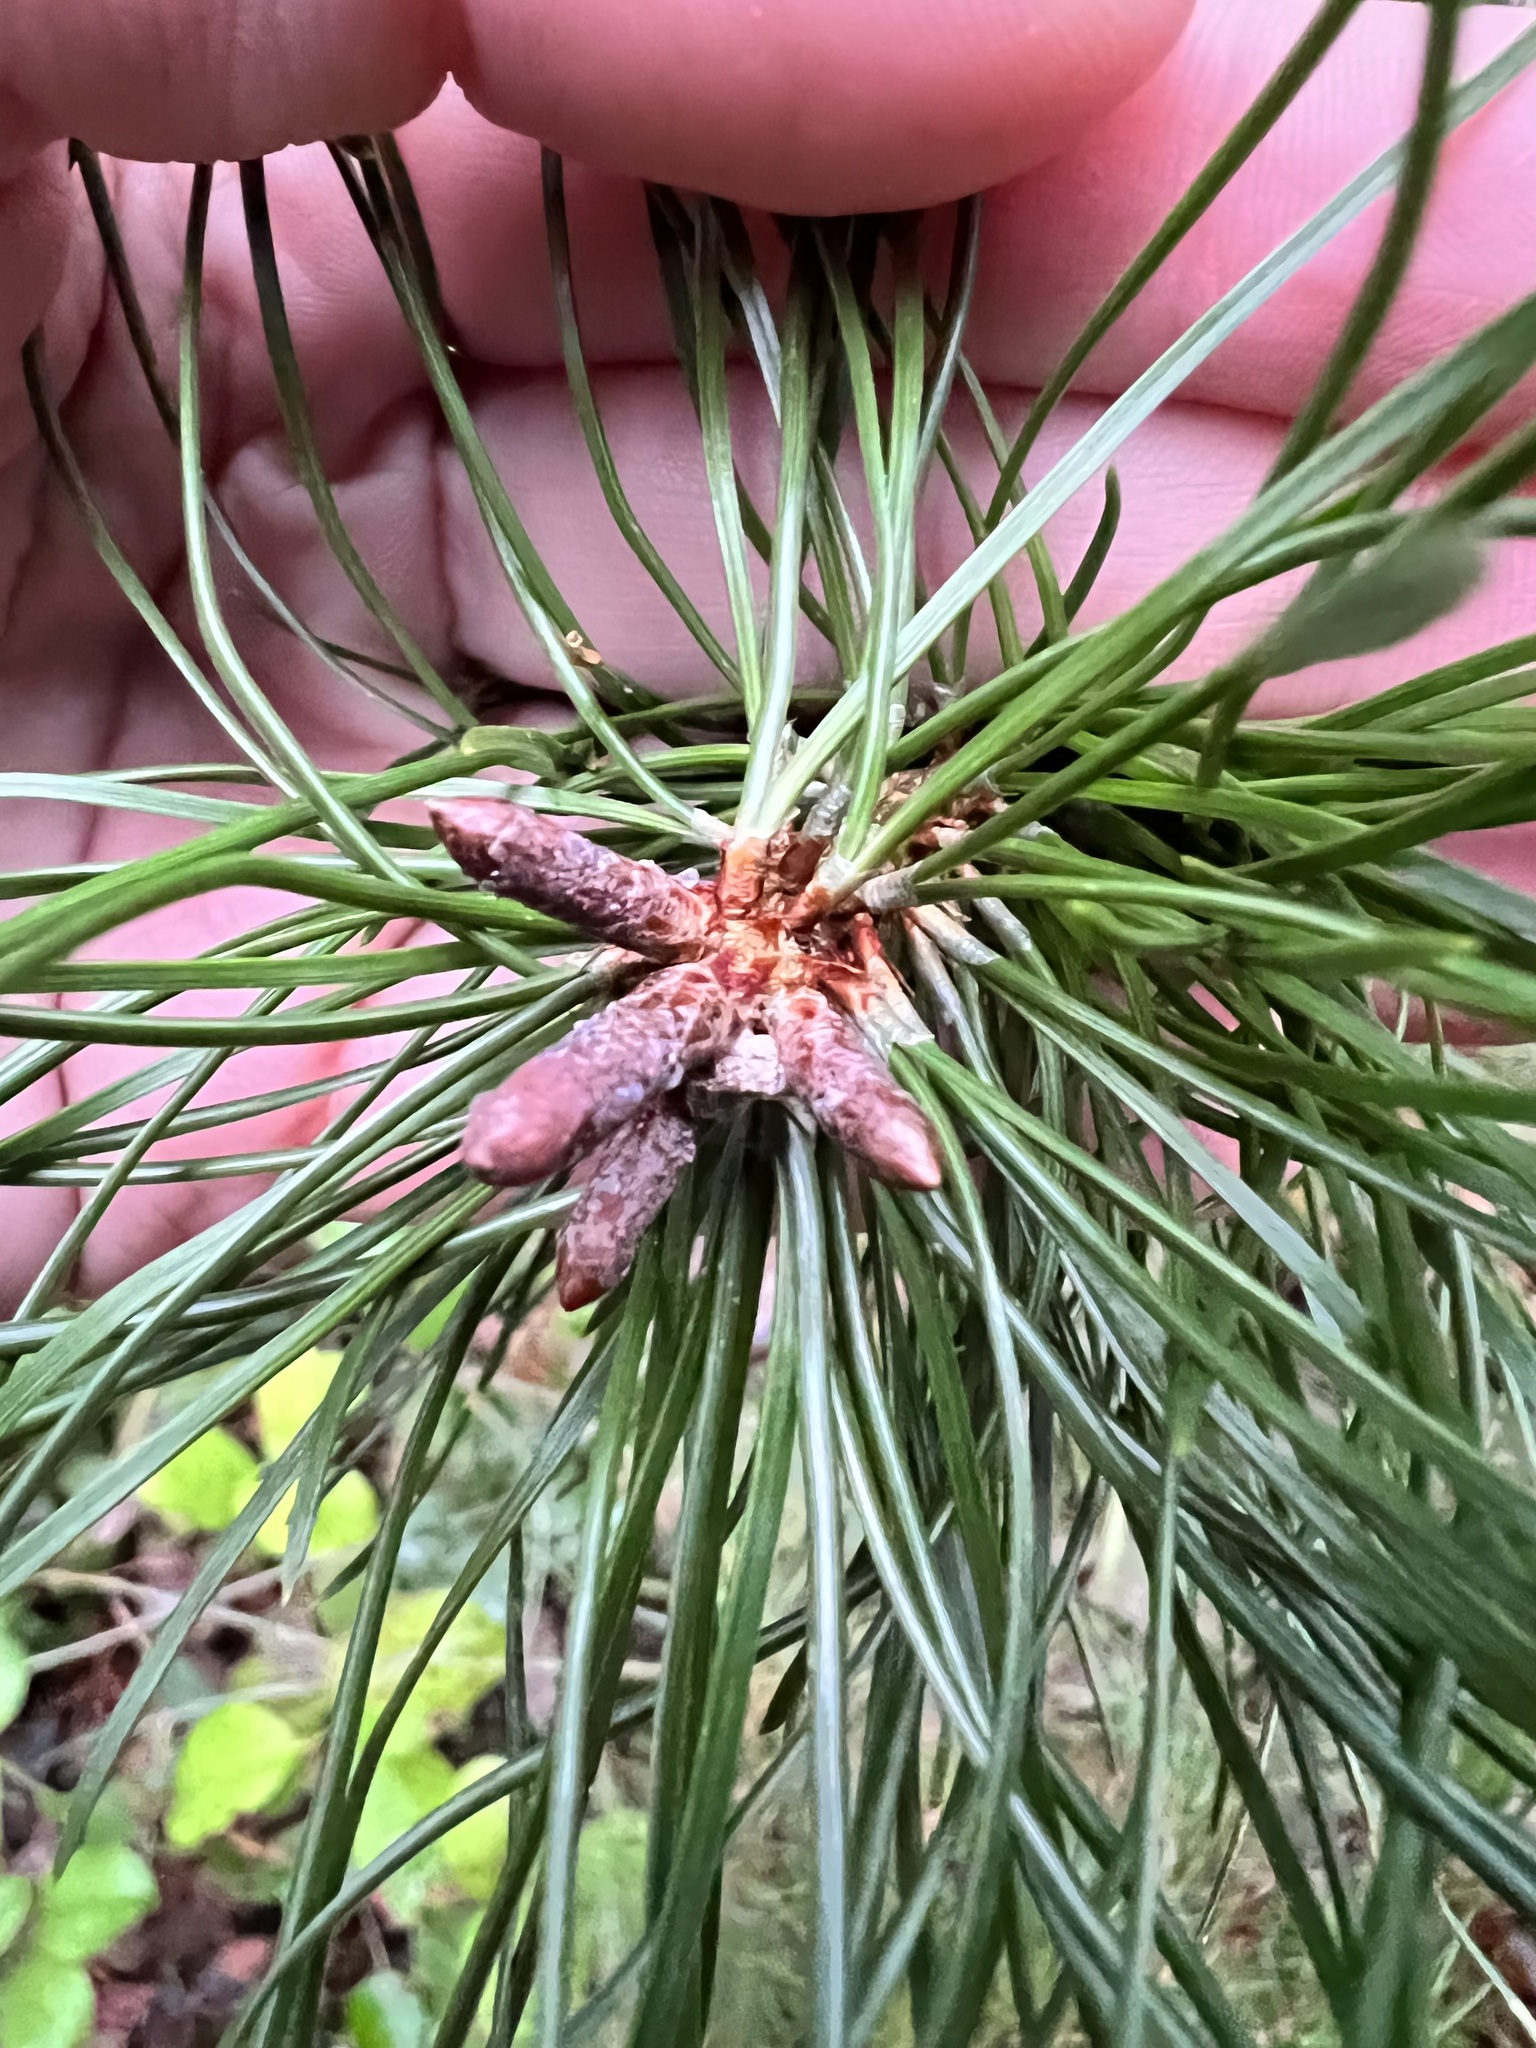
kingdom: Plantae
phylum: Tracheophyta
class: Pinopsida
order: Pinales
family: Pinaceae
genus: Pinus
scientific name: Pinus contorta
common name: Lodgepole pine
